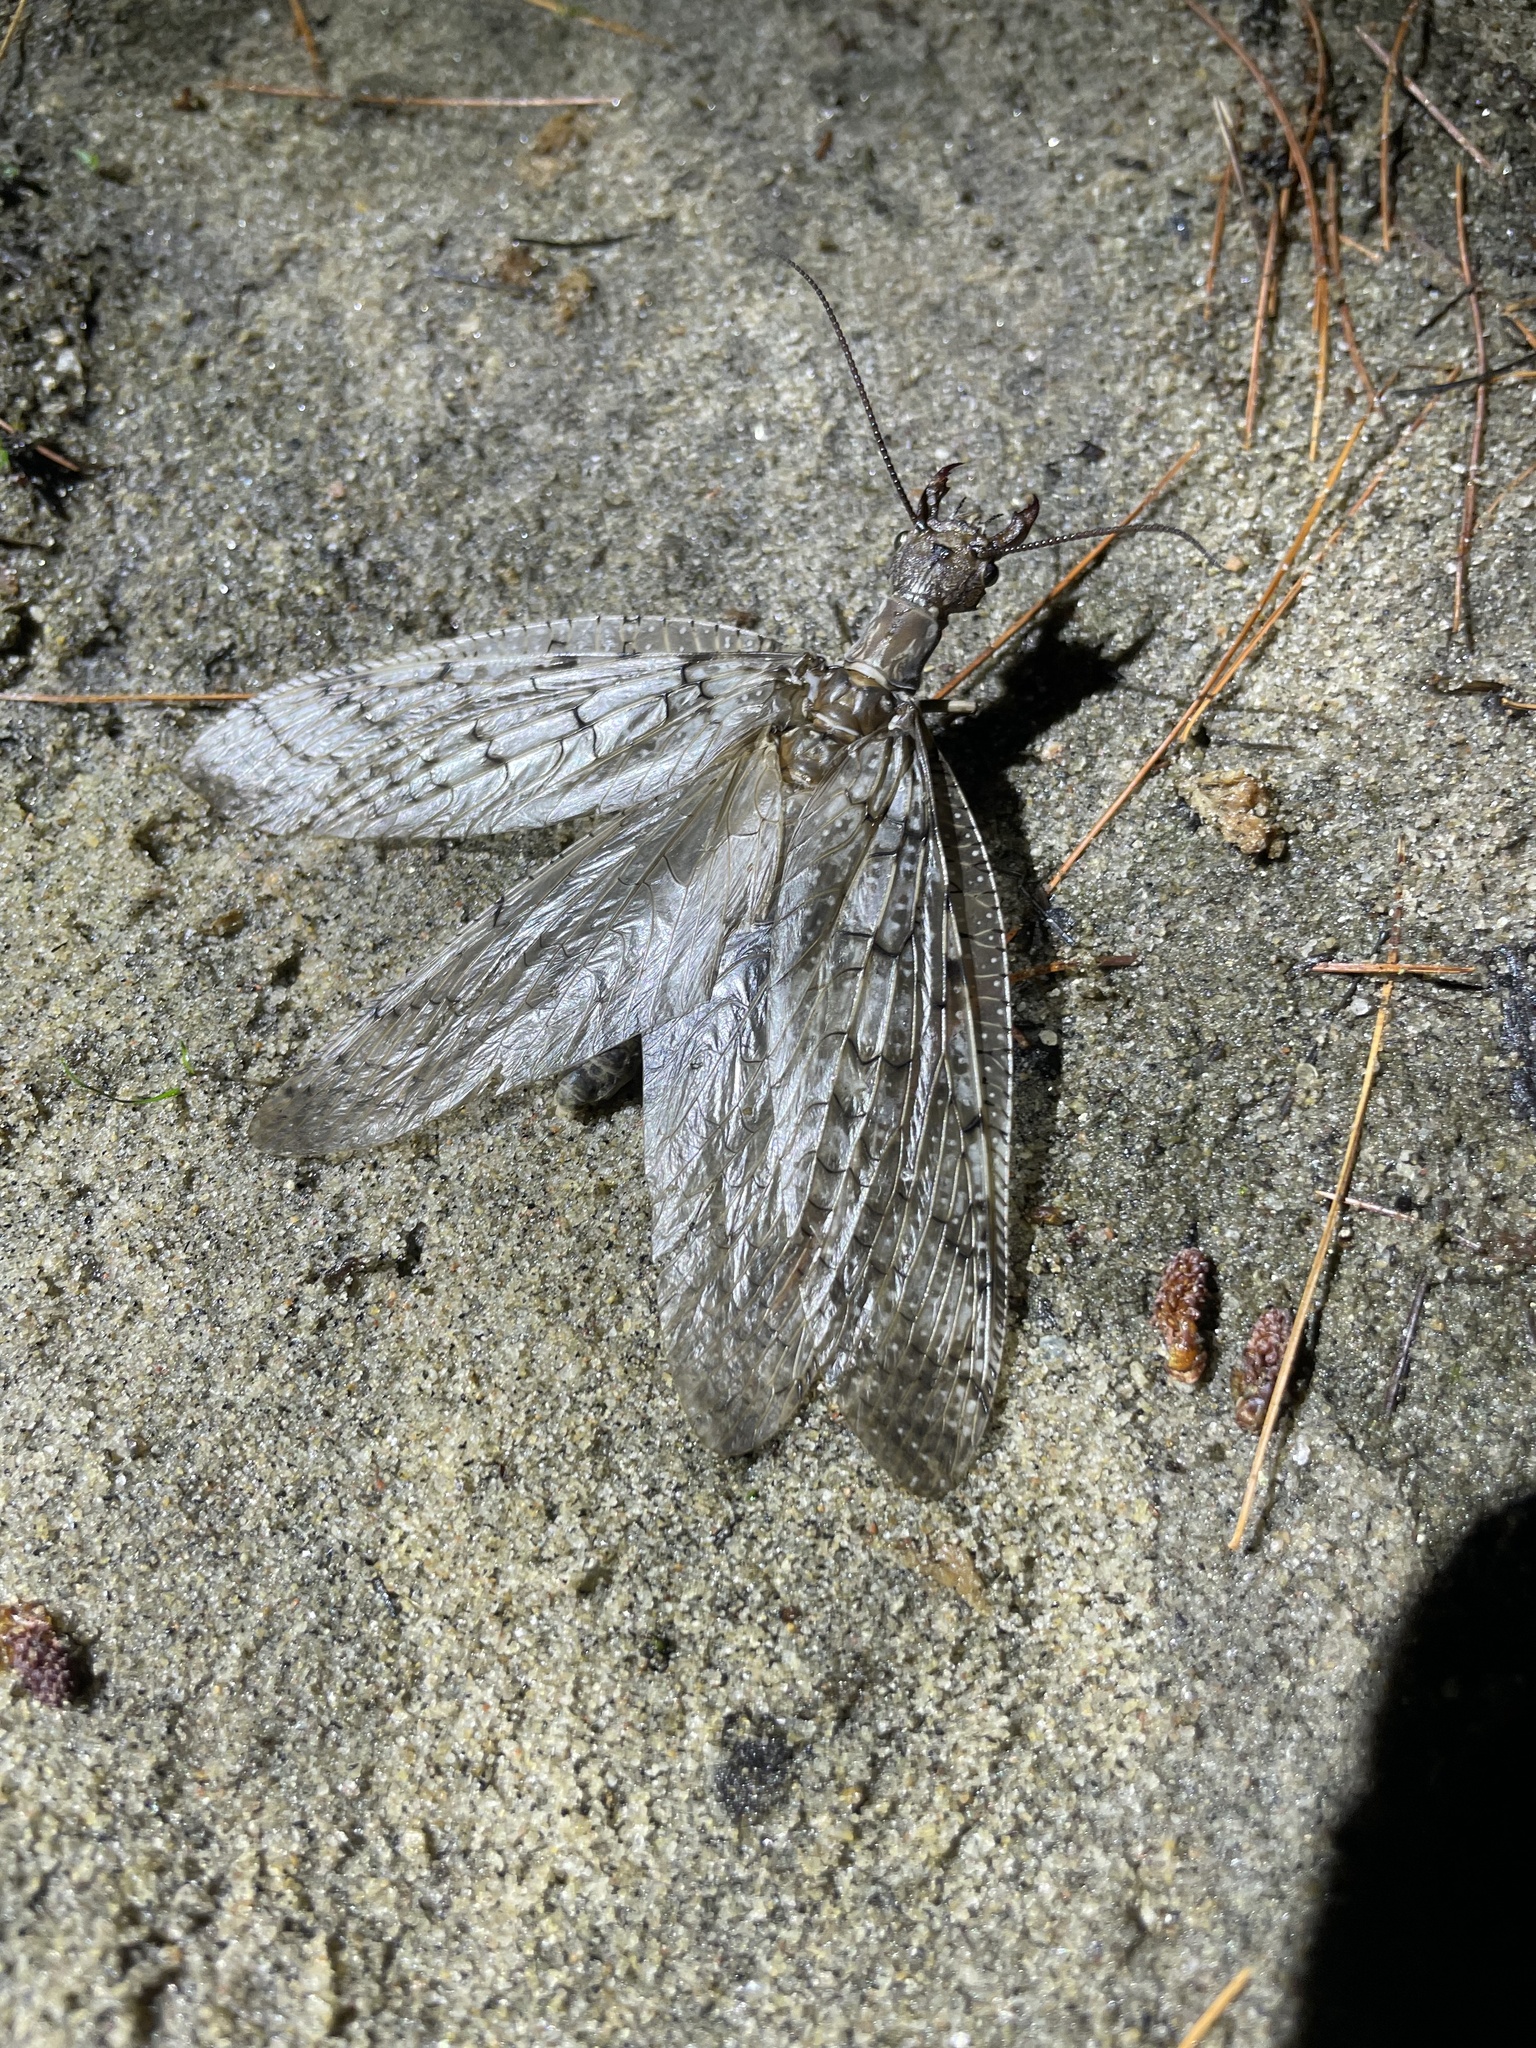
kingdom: Animalia
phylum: Arthropoda
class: Insecta
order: Megaloptera
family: Corydalidae
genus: Corydalus
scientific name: Corydalus cornutus
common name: Dobsonfly
